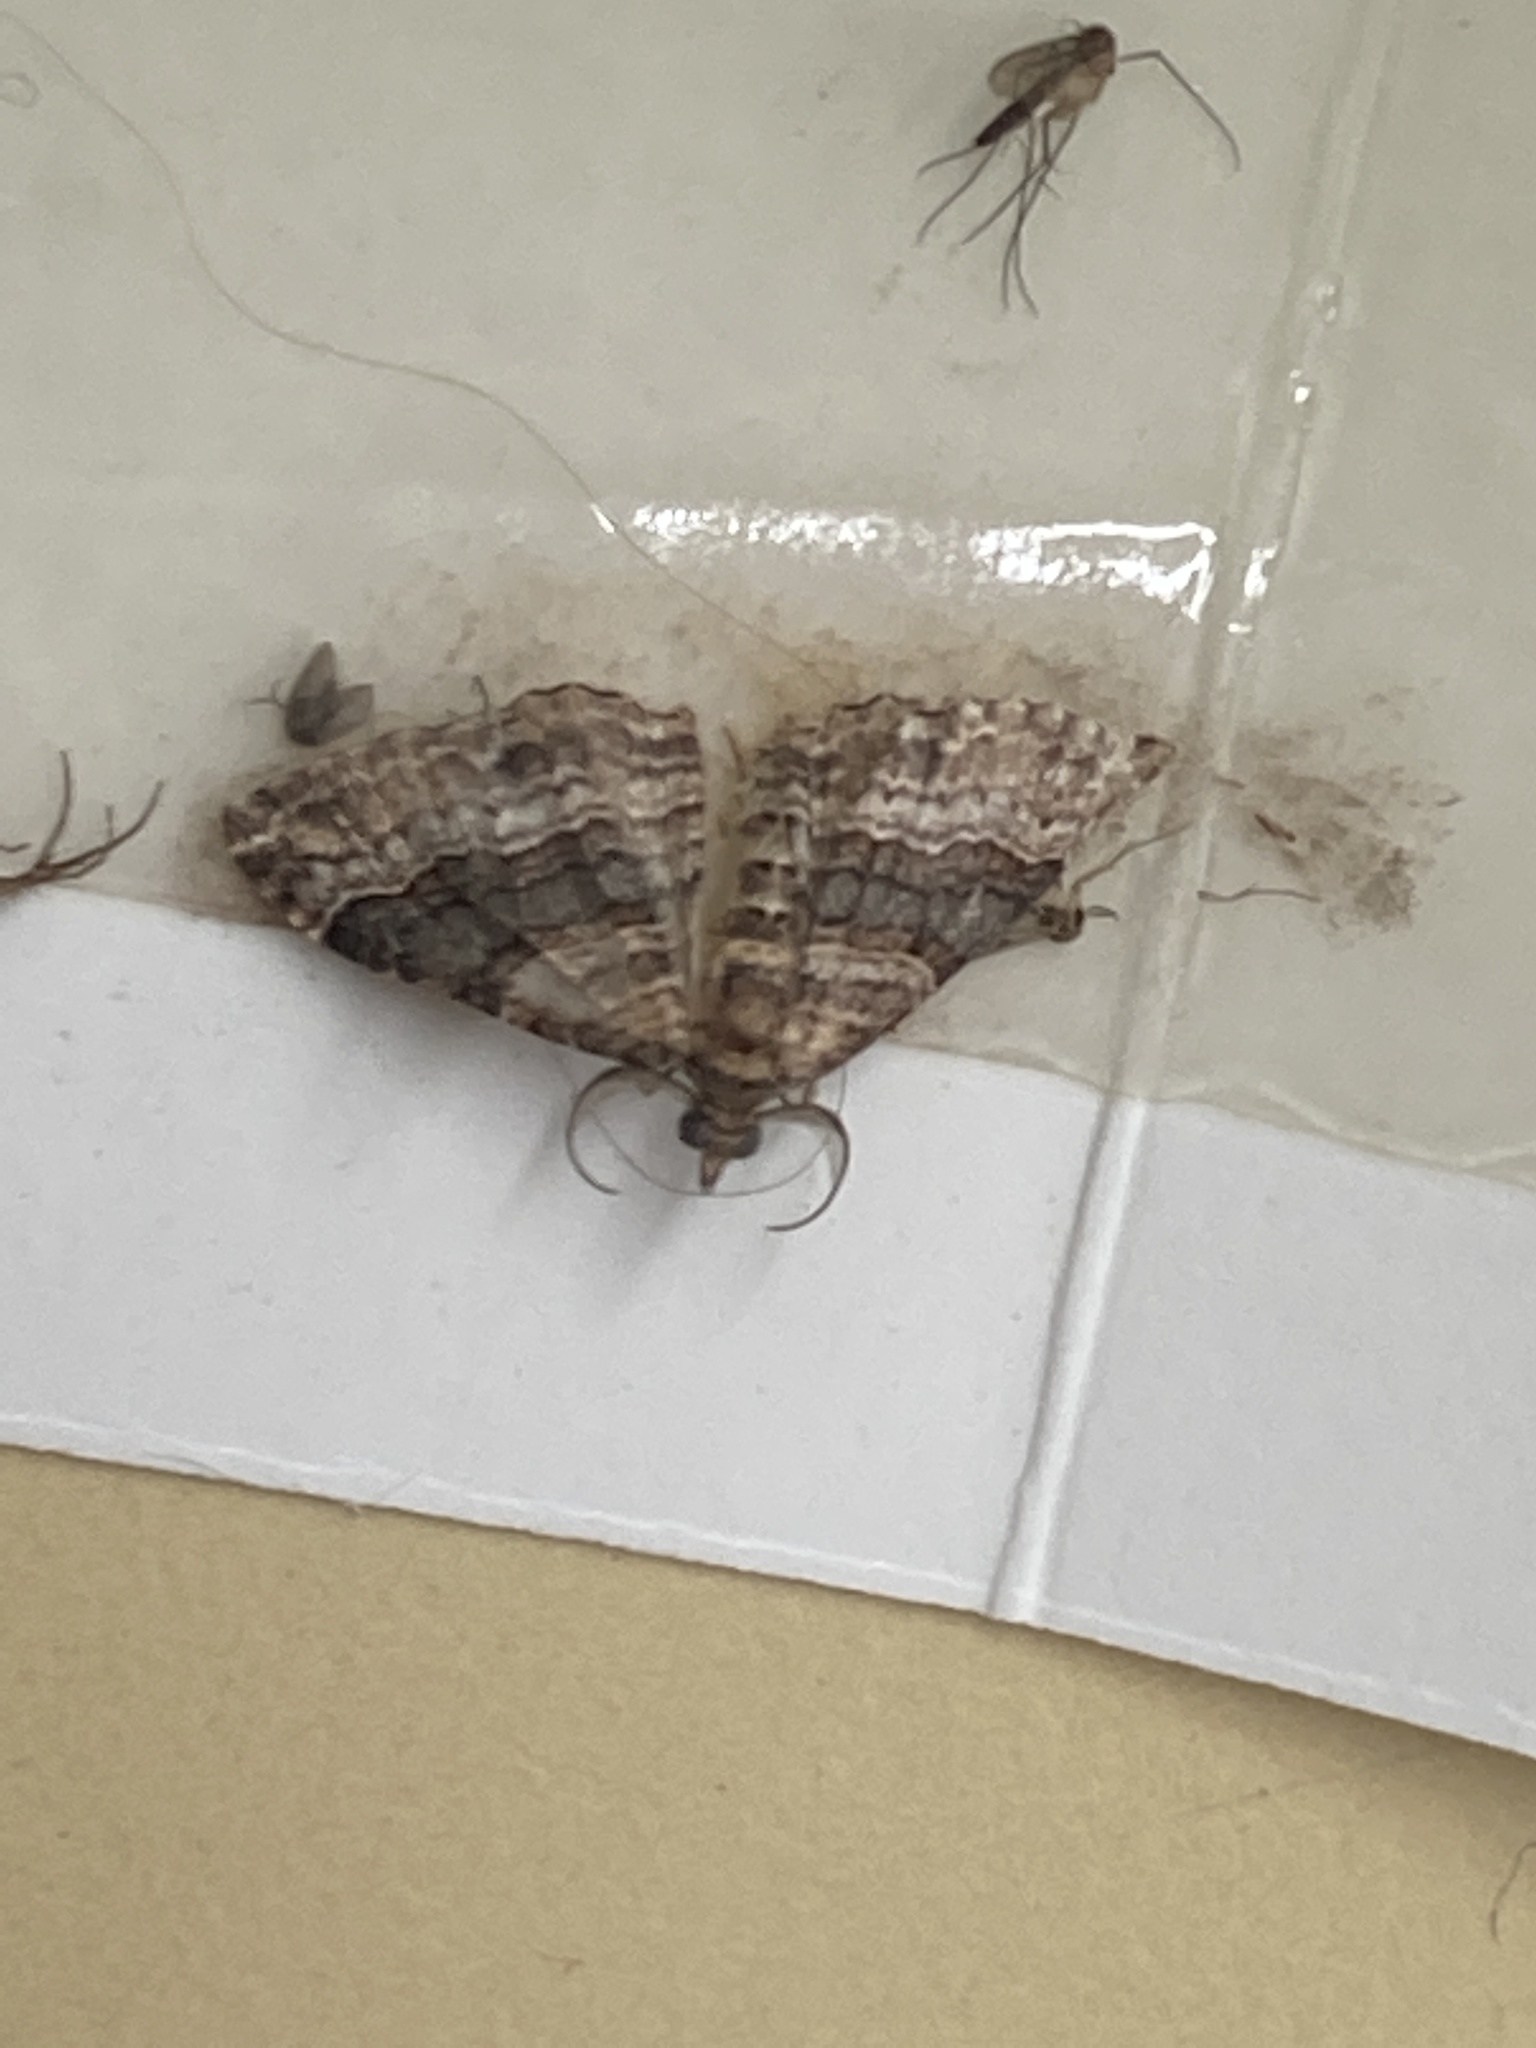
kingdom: Animalia
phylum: Arthropoda
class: Insecta
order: Lepidoptera
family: Geometridae
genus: Epyaxa
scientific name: Epyaxa lucidata
